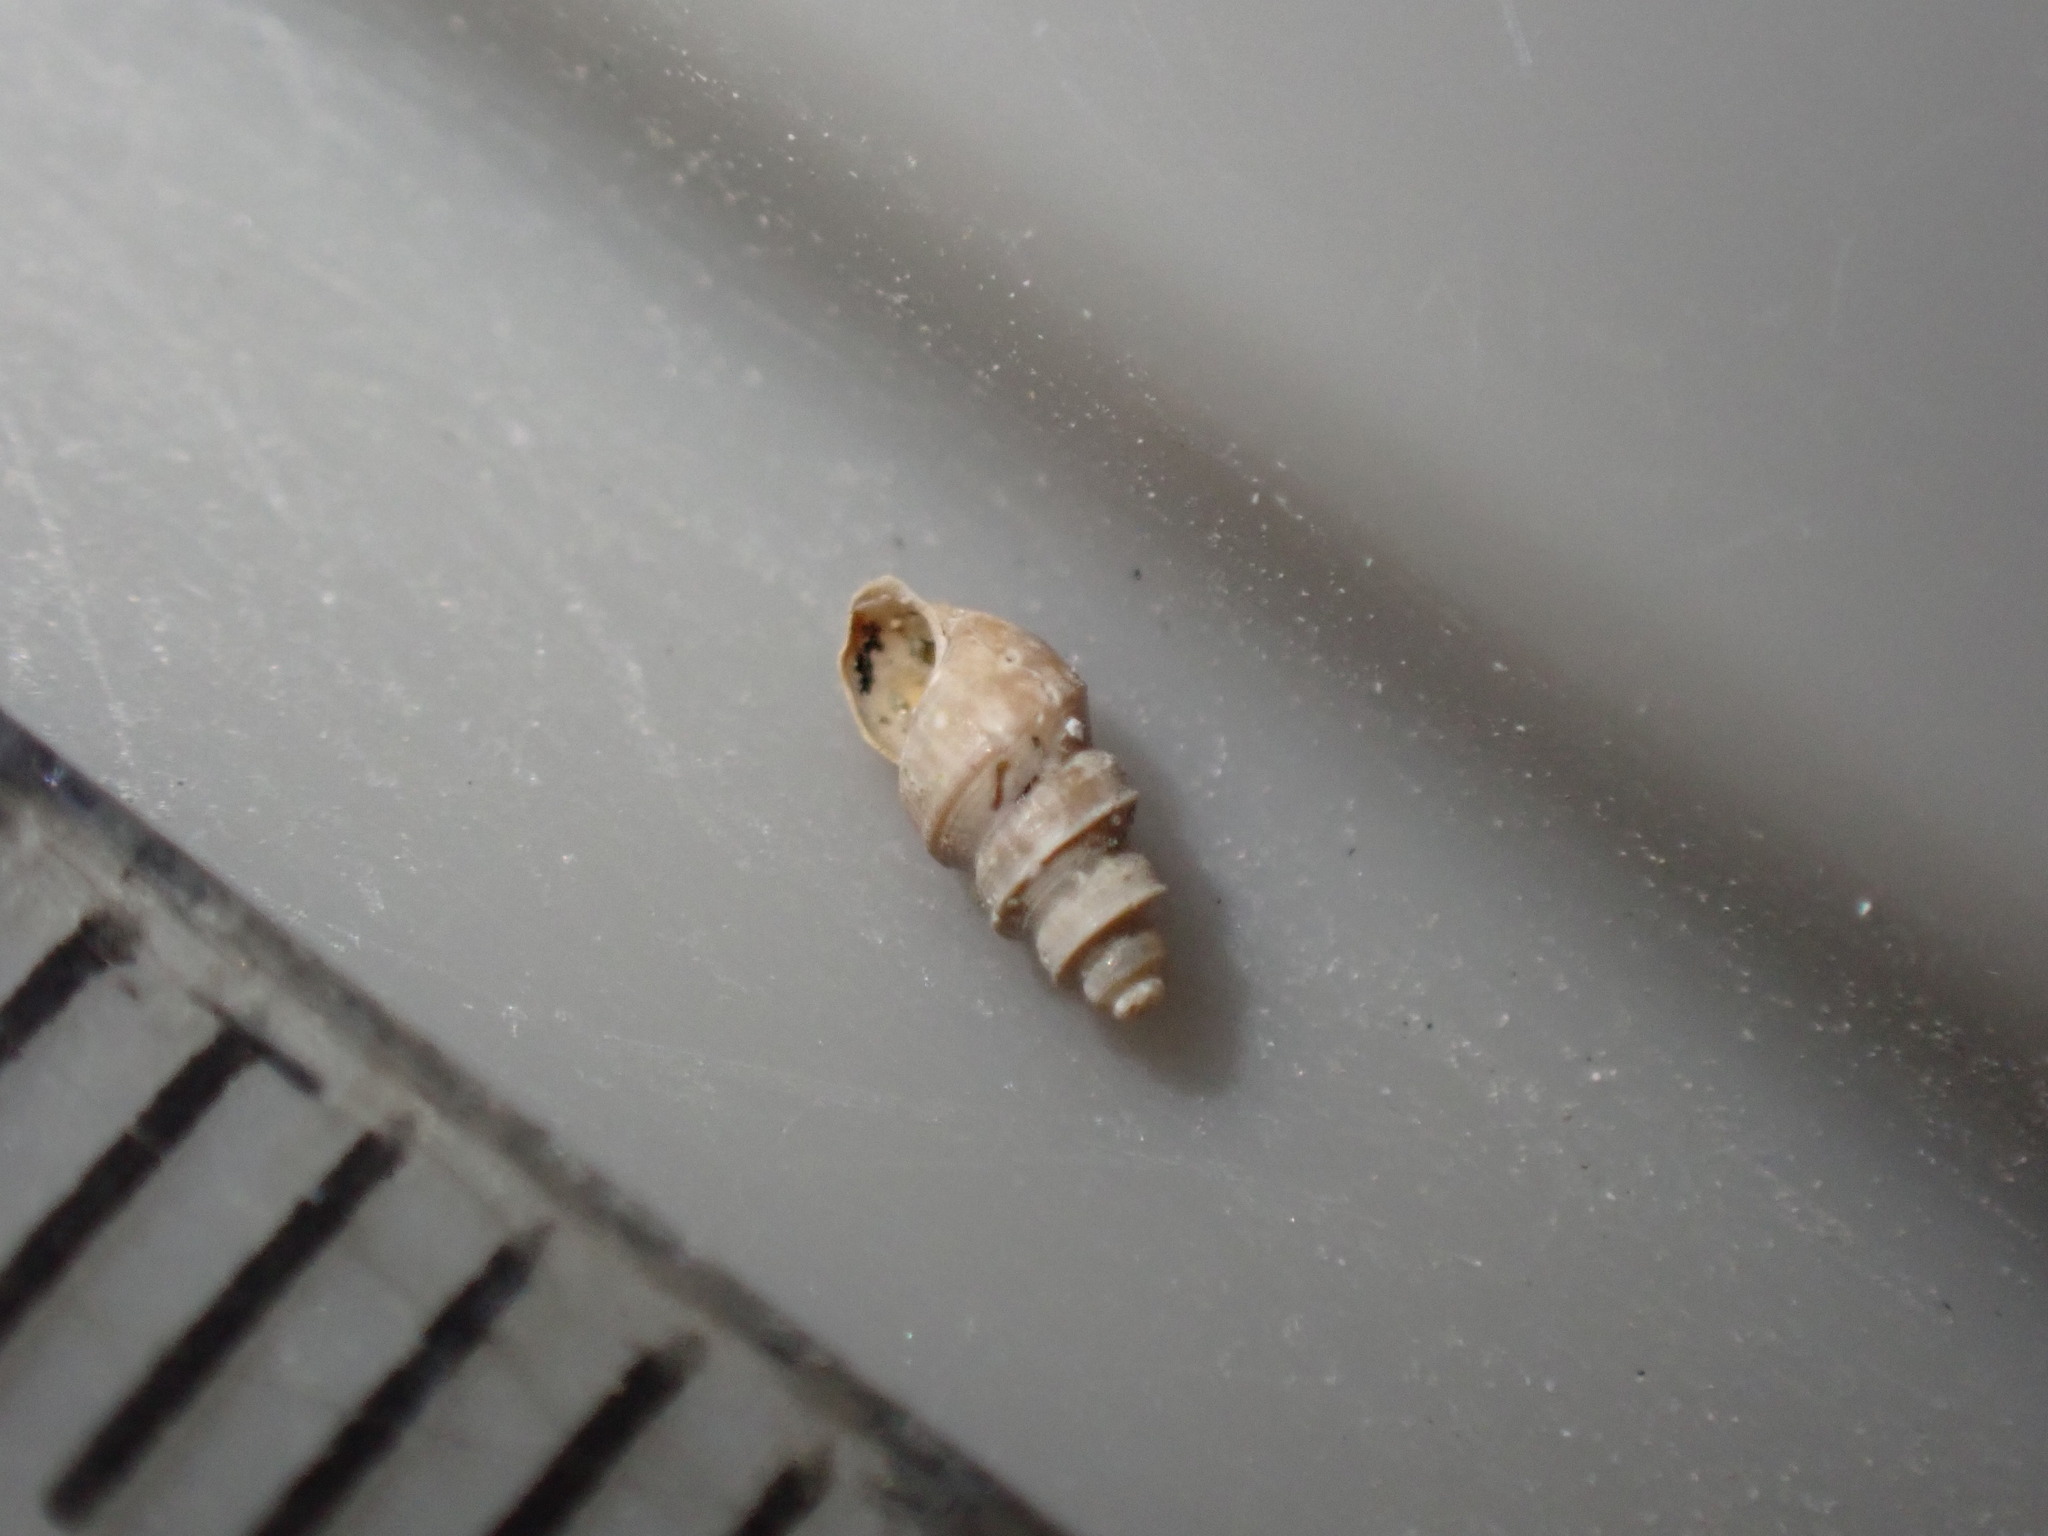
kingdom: Animalia
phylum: Mollusca
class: Gastropoda
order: Littorinimorpha
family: Tateidae
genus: Halopyrgus
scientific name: Halopyrgus pagodulus
